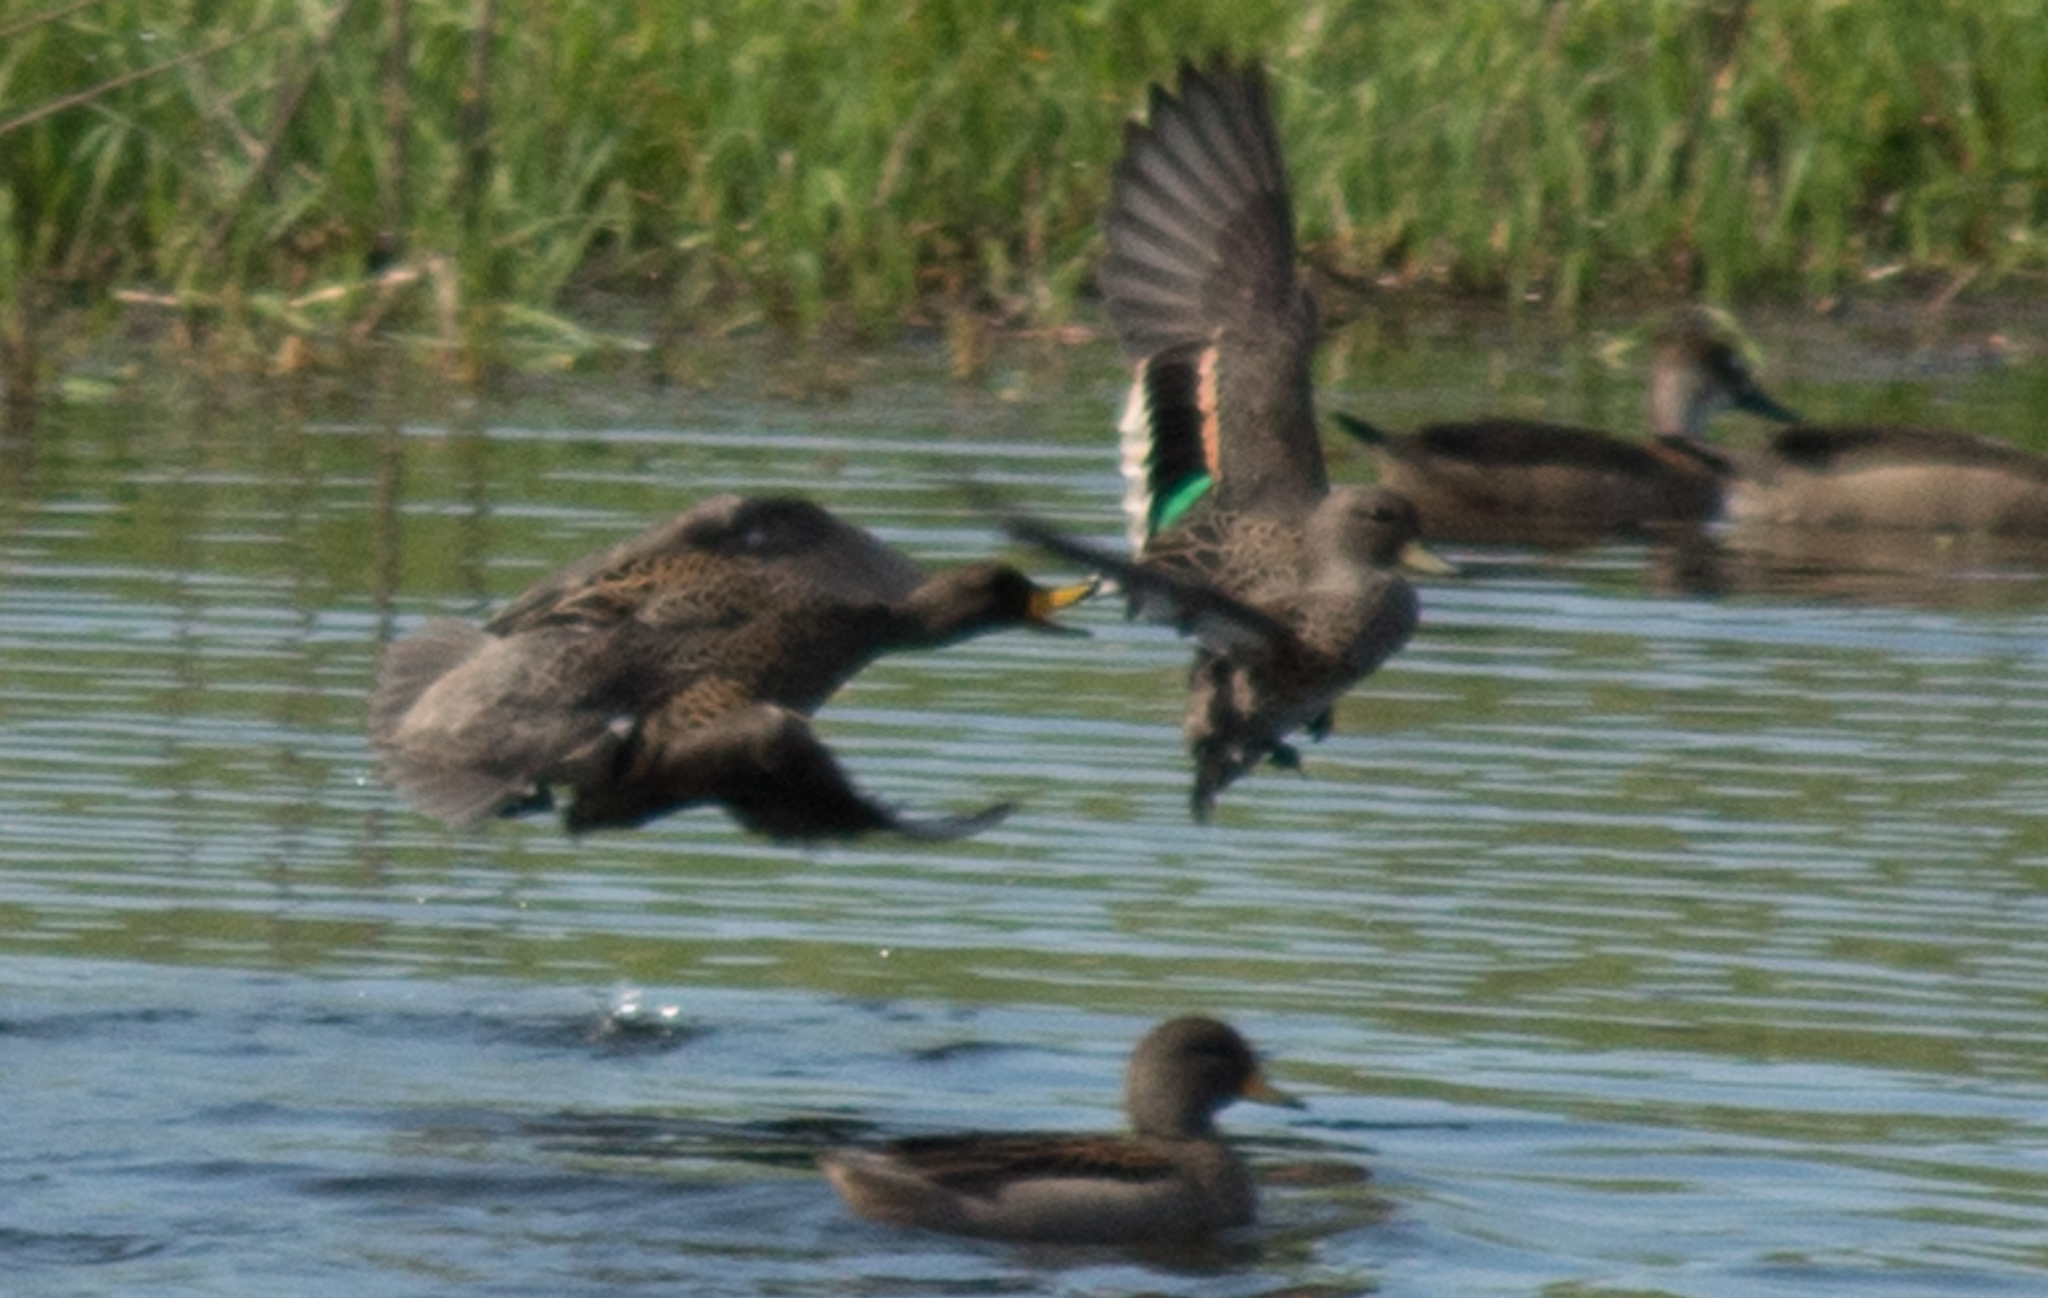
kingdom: Animalia
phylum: Chordata
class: Aves
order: Anseriformes
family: Anatidae
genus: Anas
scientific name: Anas flavirostris
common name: Yellow-billed teal
